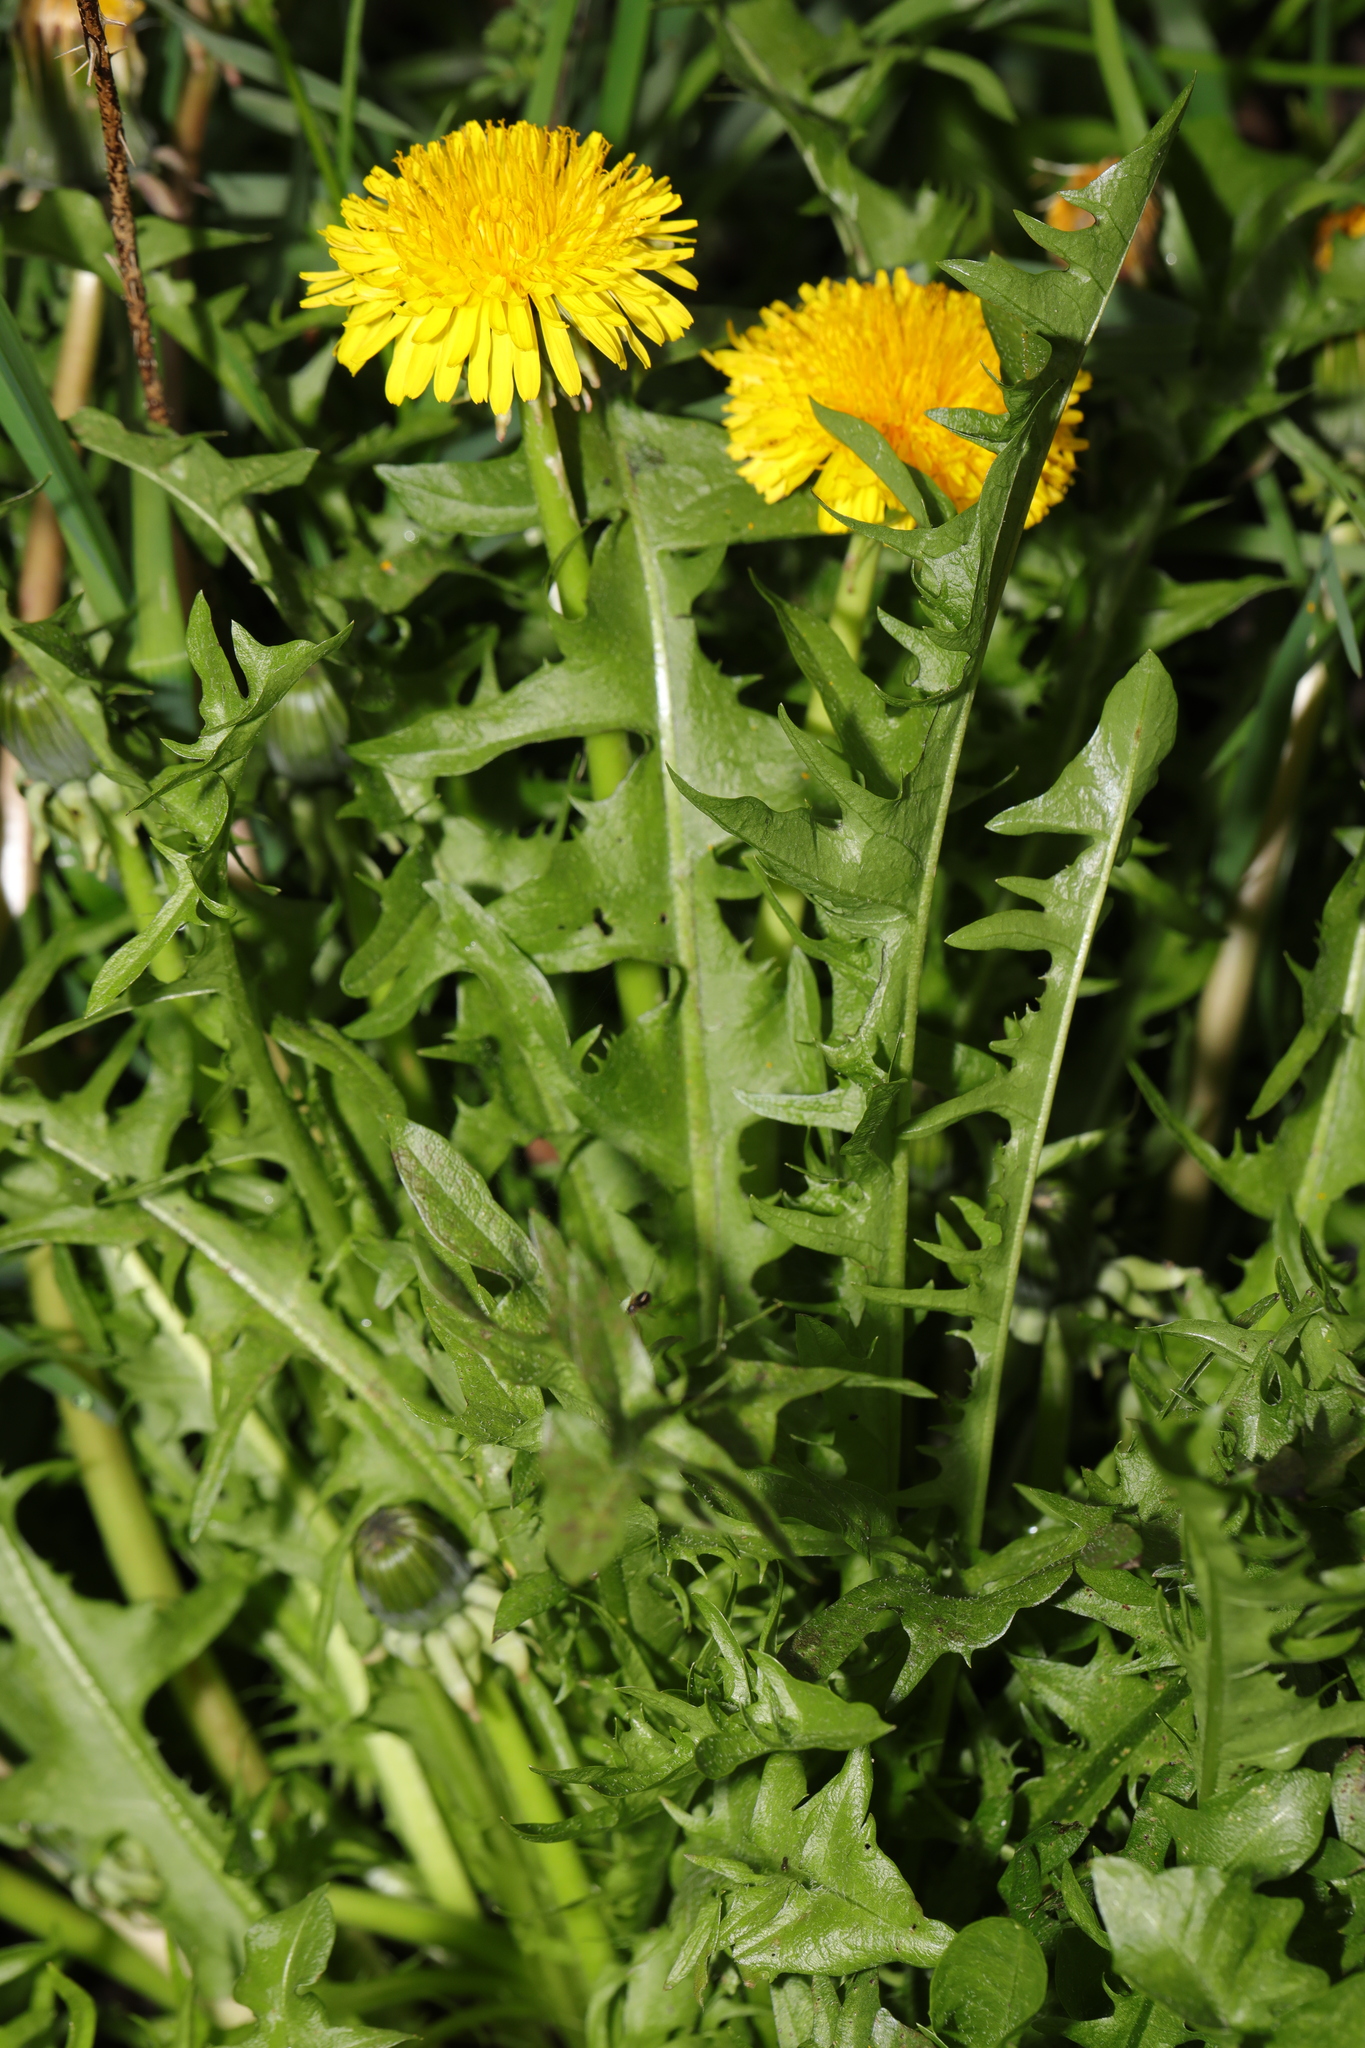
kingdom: Plantae
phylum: Tracheophyta
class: Magnoliopsida
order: Asterales
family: Asteraceae
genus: Taraxacum
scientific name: Taraxacum officinale
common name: Common dandelion
